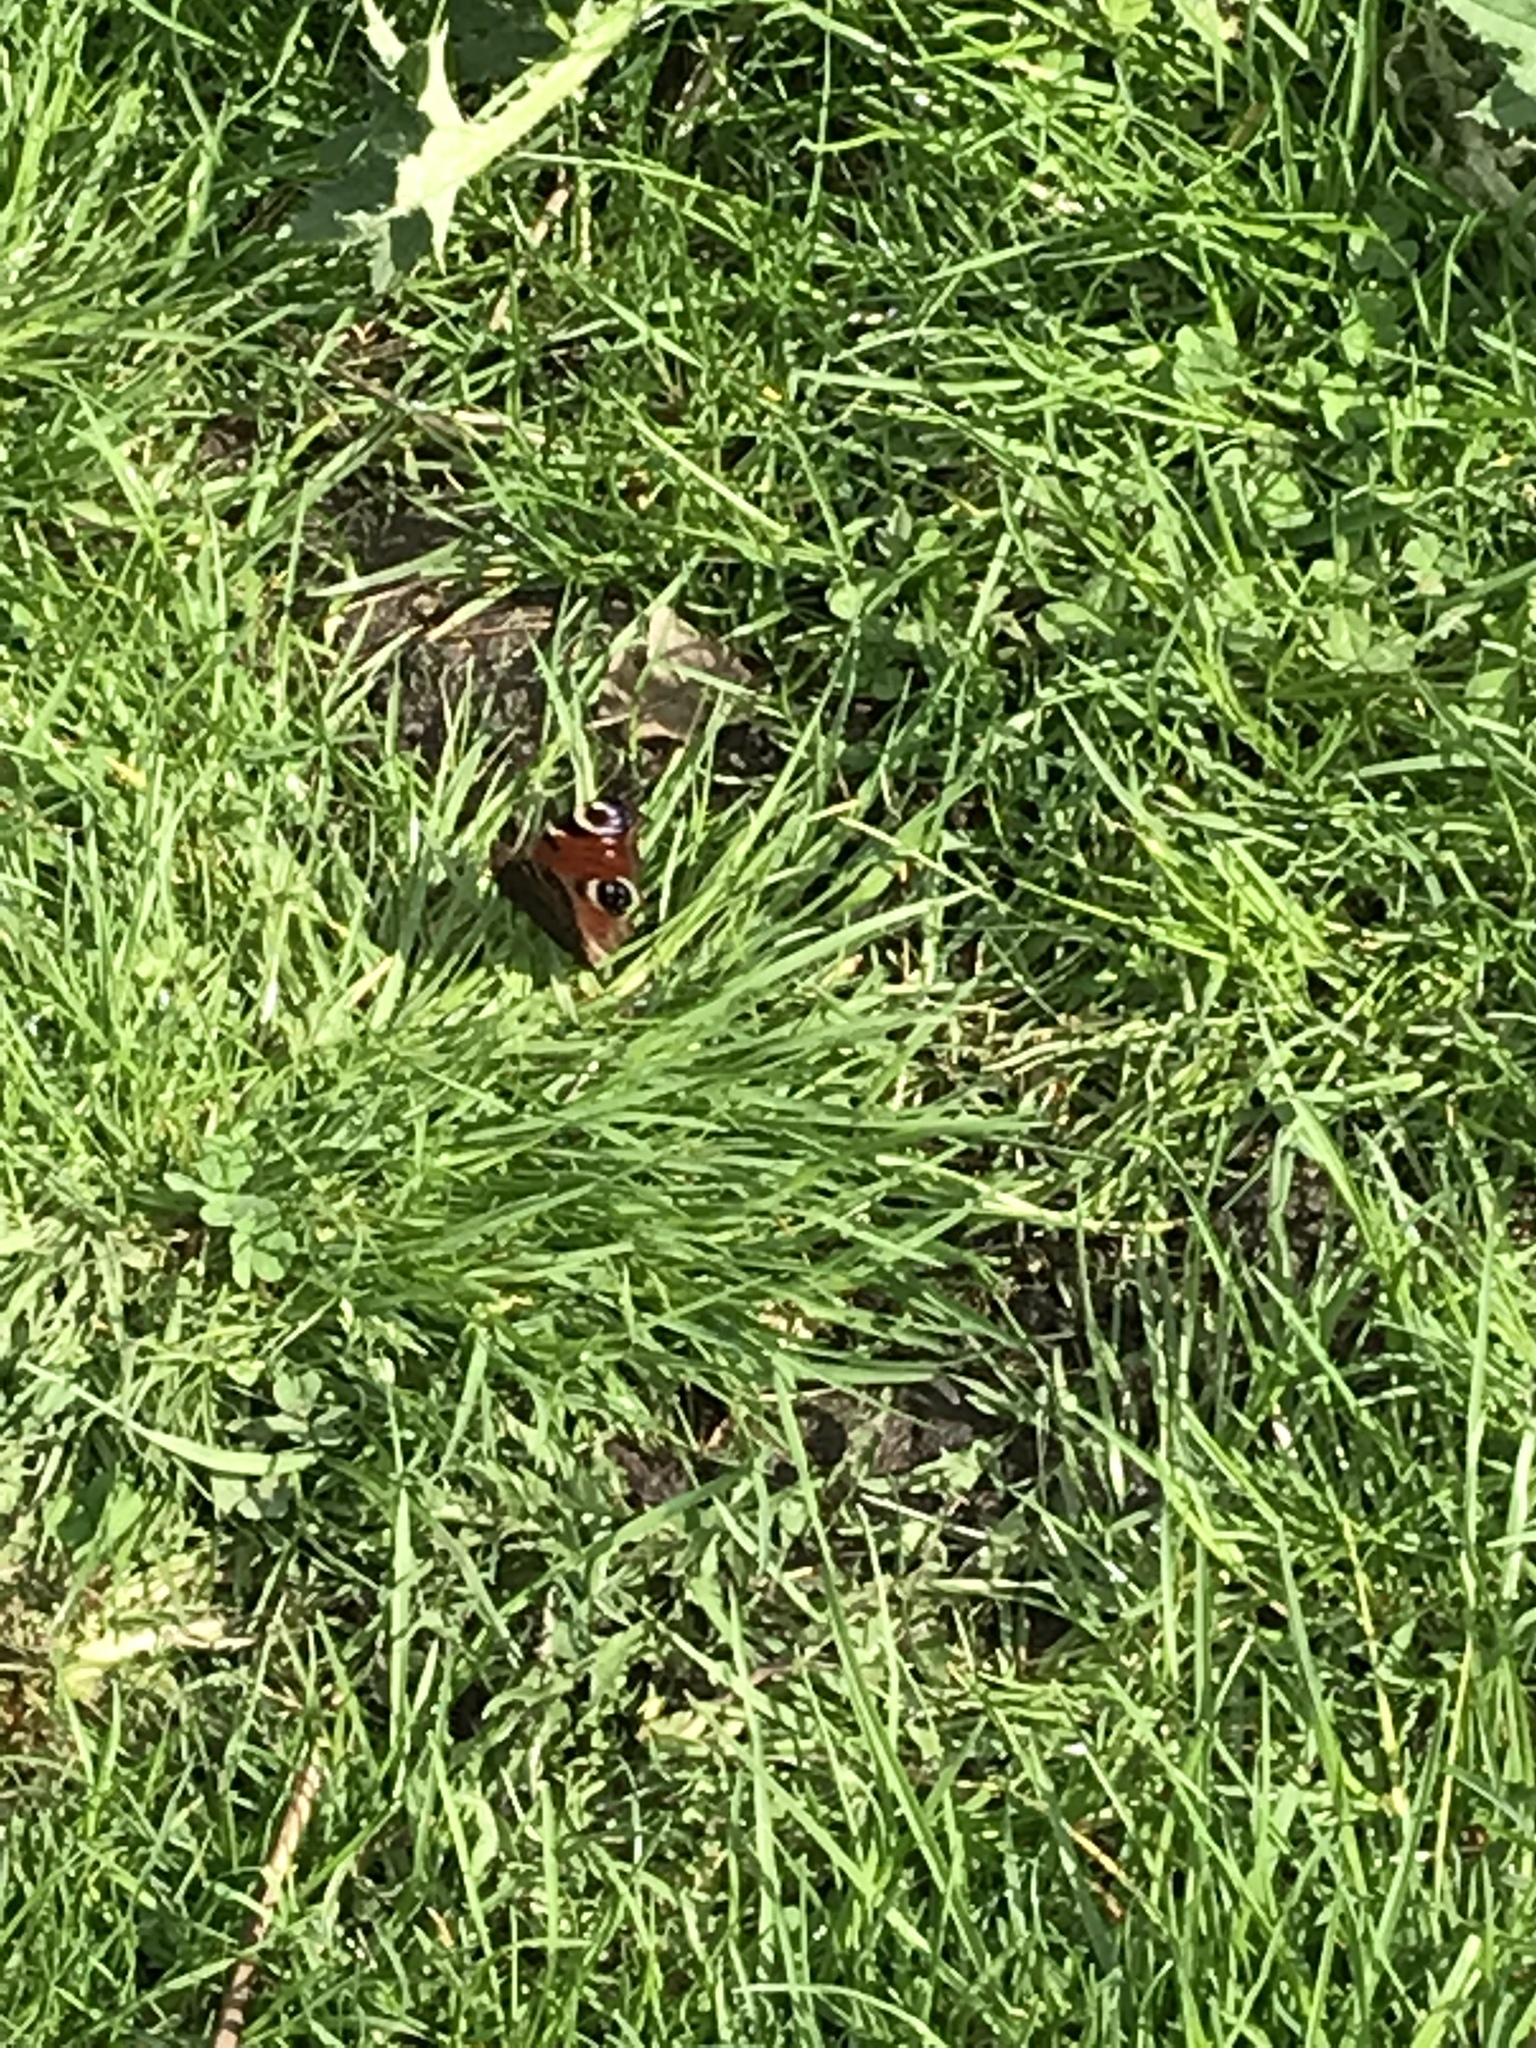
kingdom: Animalia
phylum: Arthropoda
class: Insecta
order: Lepidoptera
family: Nymphalidae
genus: Aglais
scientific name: Aglais io
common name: Peacock
